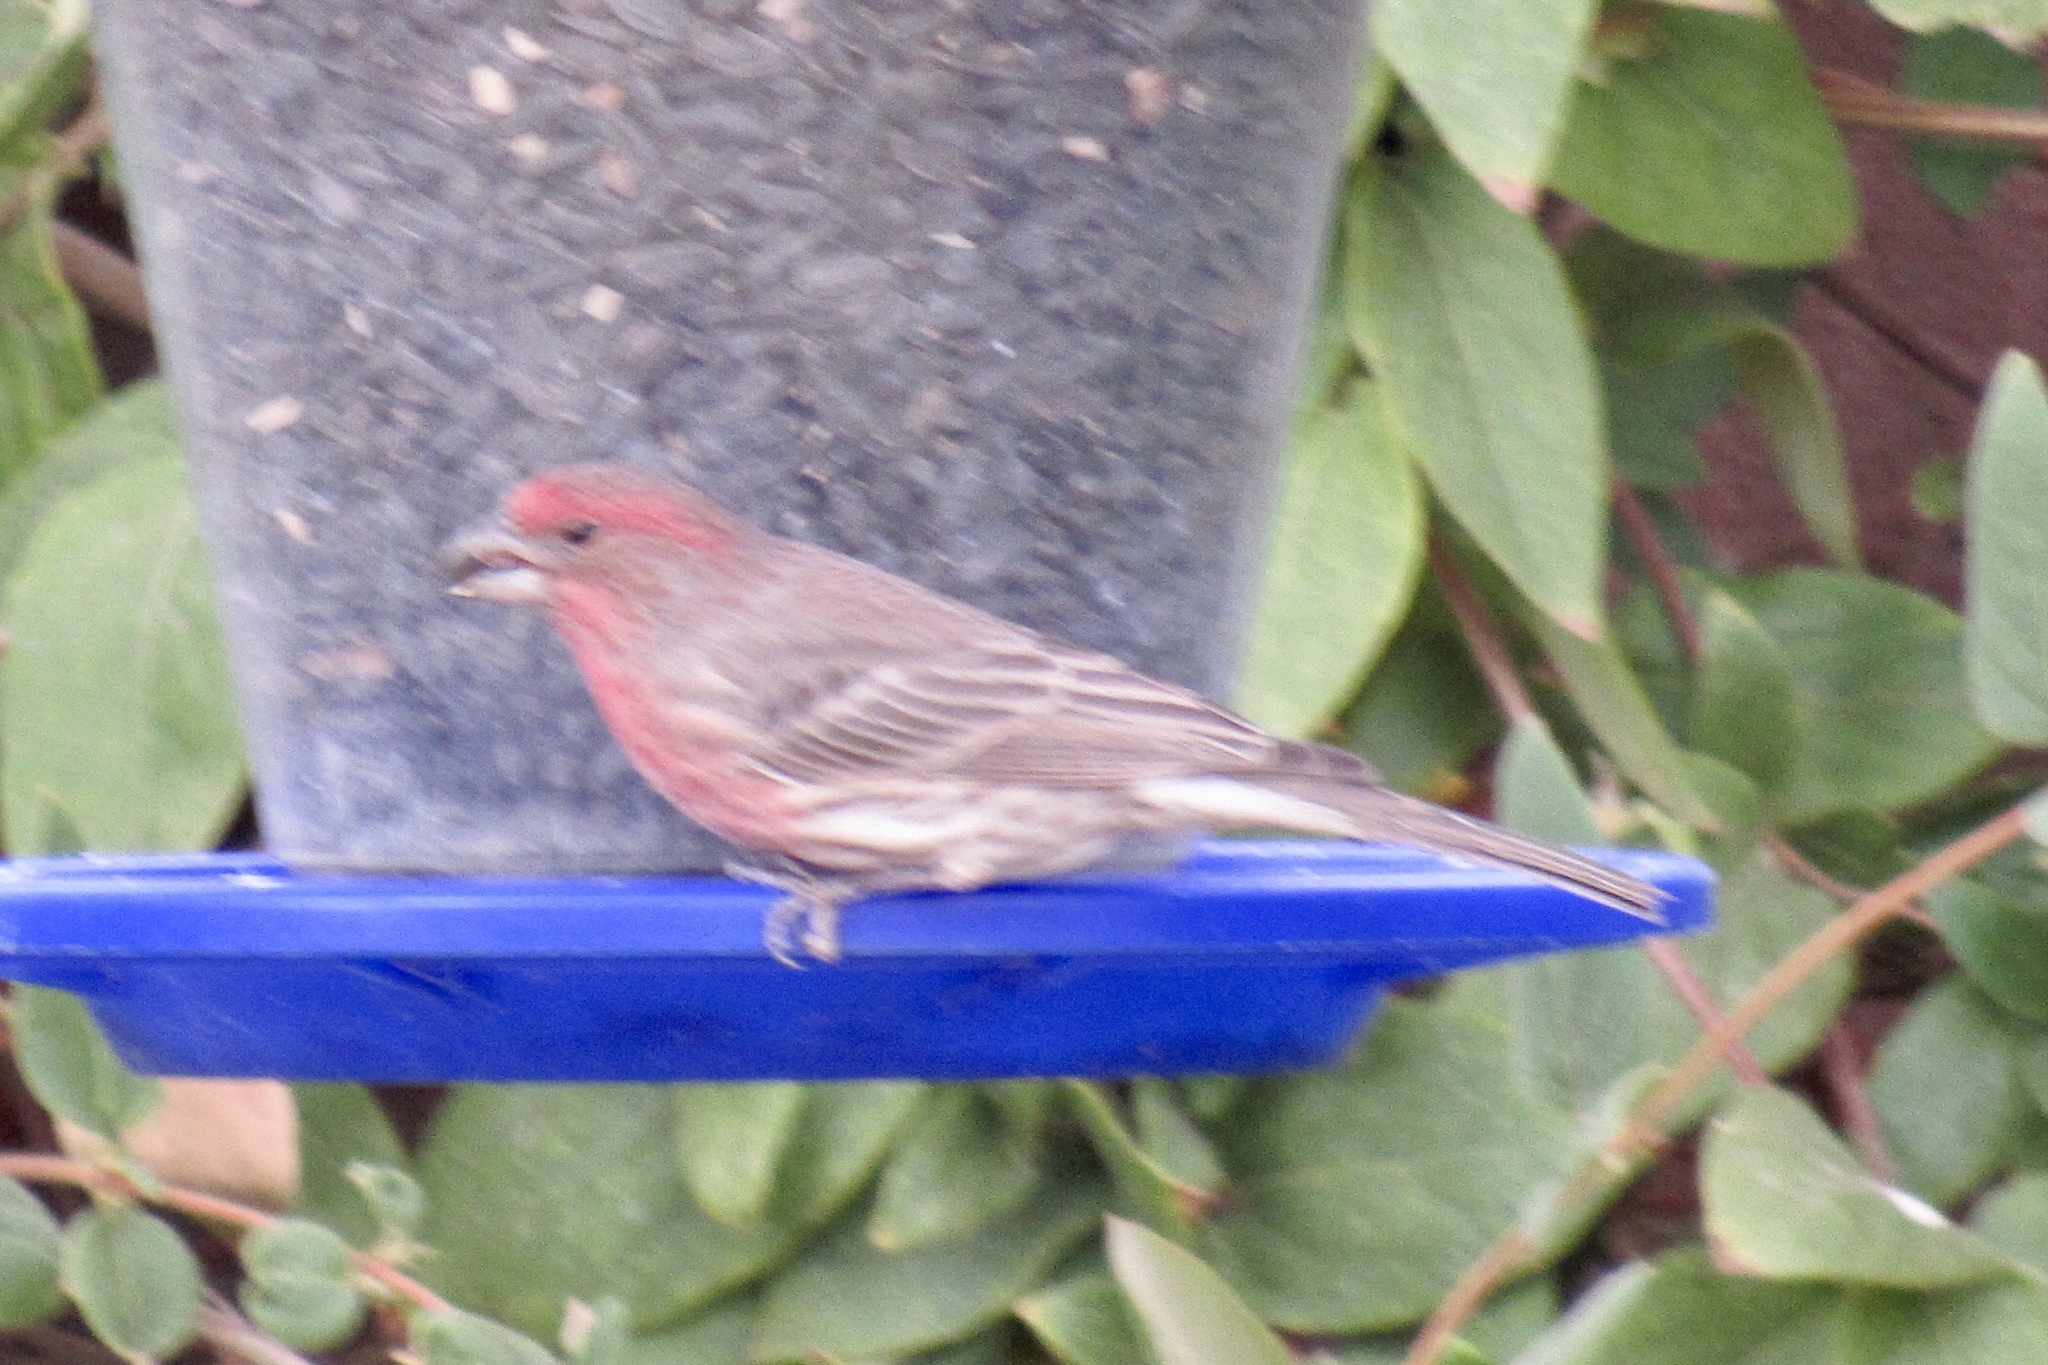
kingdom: Animalia
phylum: Chordata
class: Aves
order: Passeriformes
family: Fringillidae
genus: Haemorhous
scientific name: Haemorhous mexicanus
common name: House finch
